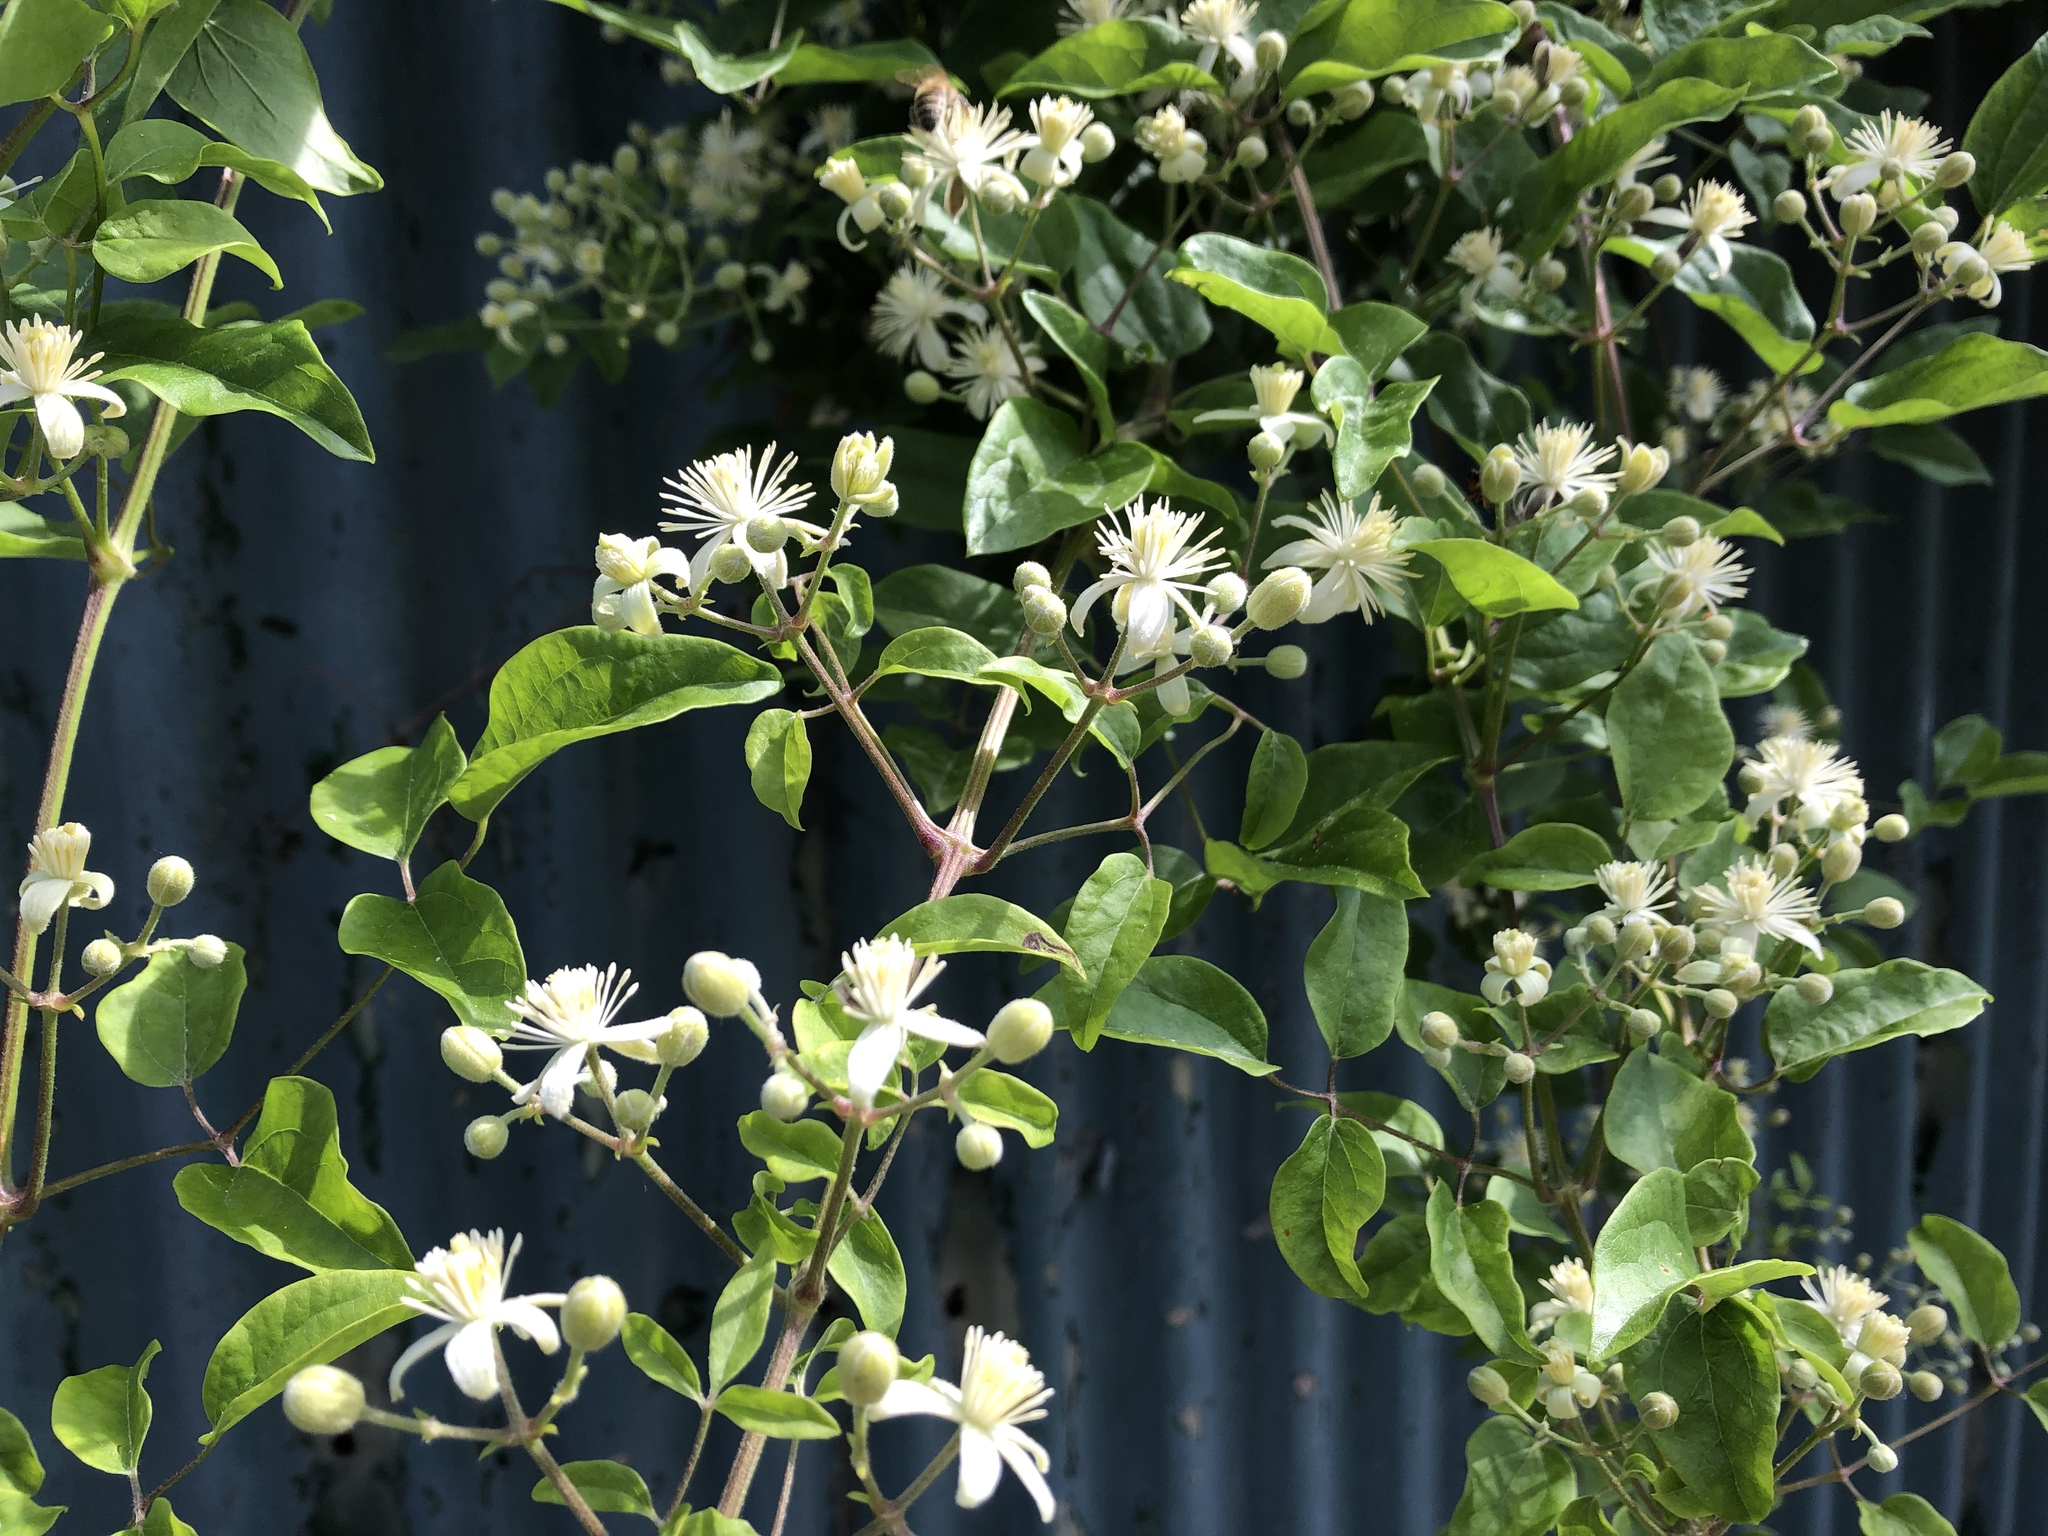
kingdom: Plantae
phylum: Tracheophyta
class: Magnoliopsida
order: Ranunculales
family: Ranunculaceae
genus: Clematis
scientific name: Clematis vitalba
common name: Evergreen clematis
